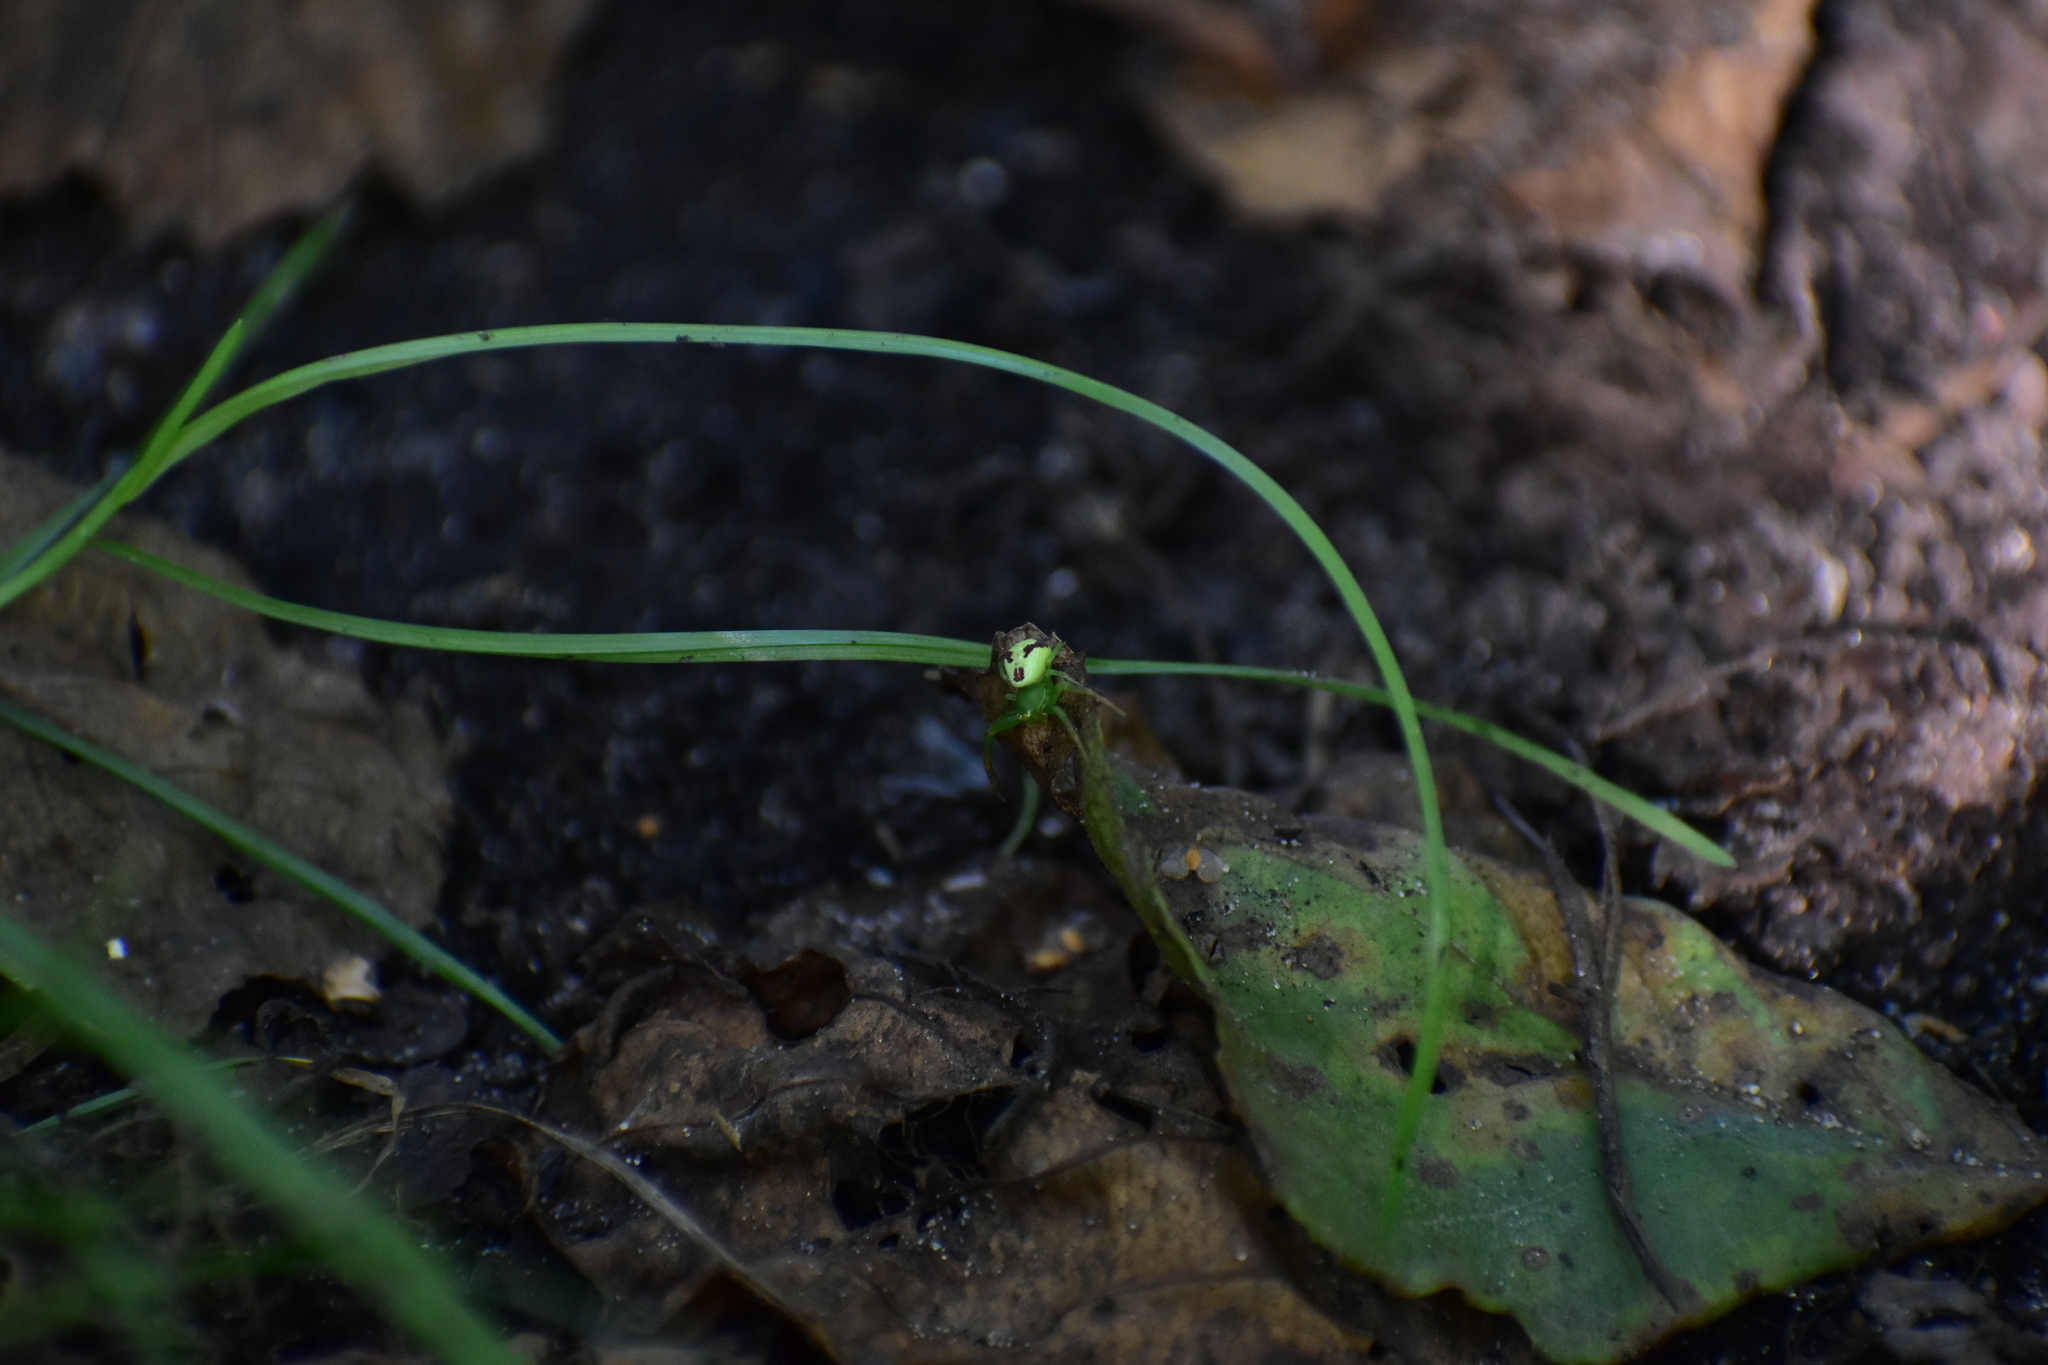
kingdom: Animalia
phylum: Arthropoda
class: Arachnida
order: Araneae
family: Thomisidae
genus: Ebrechtella
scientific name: Ebrechtella tricuspidata
